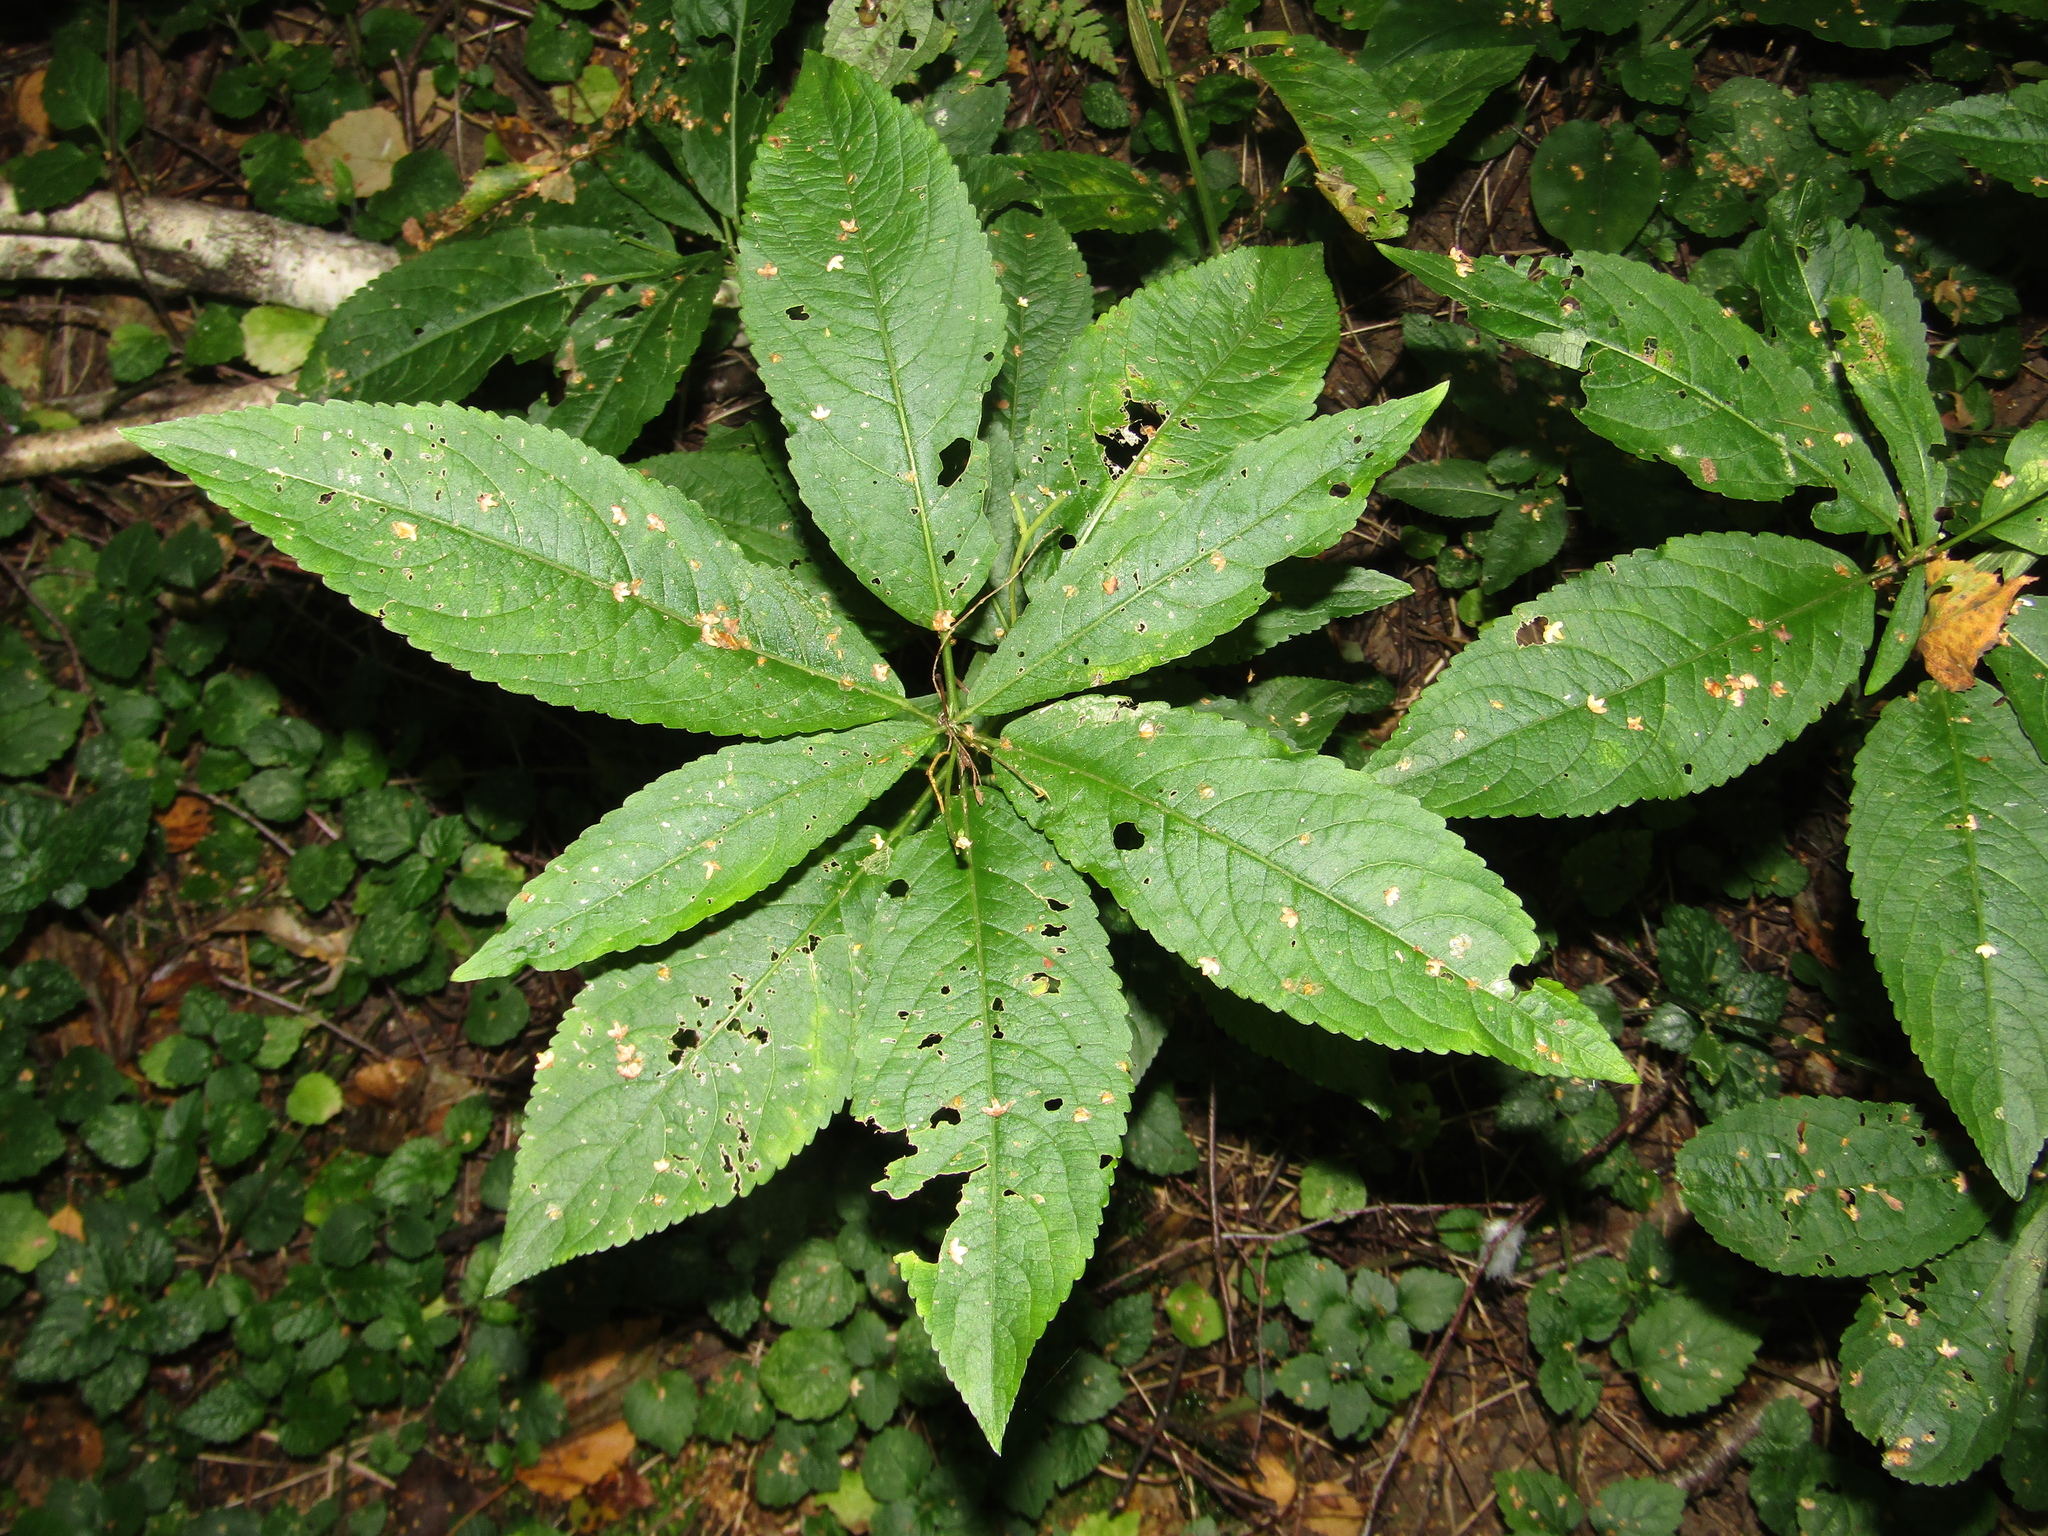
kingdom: Plantae
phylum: Tracheophyta
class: Magnoliopsida
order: Malpighiales
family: Euphorbiaceae
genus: Mercurialis
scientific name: Mercurialis perennis
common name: Dog mercury
